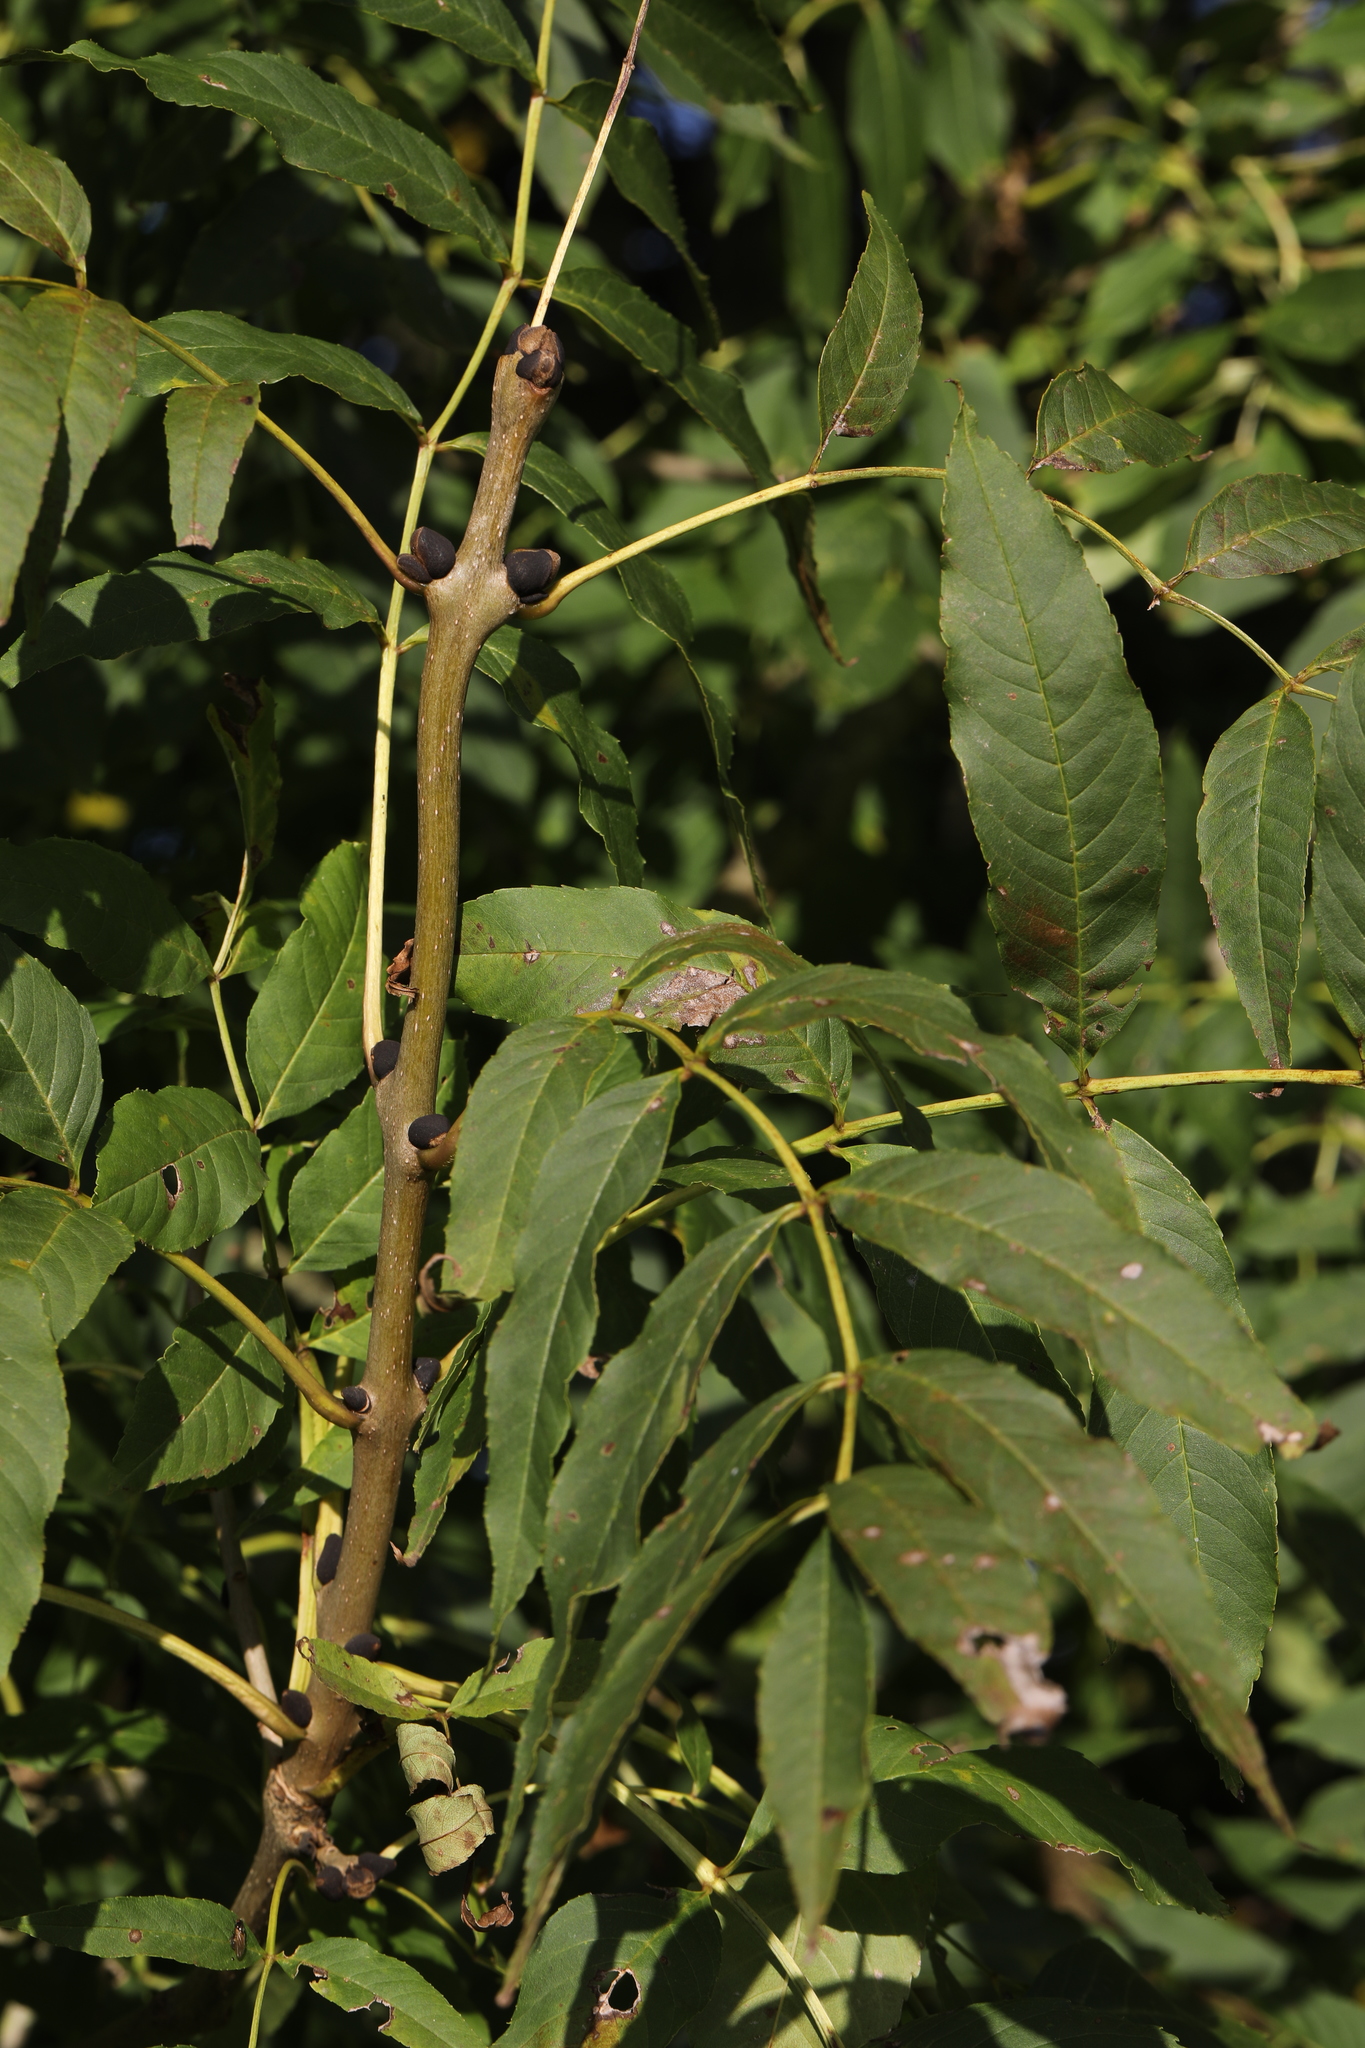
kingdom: Plantae
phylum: Tracheophyta
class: Magnoliopsida
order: Lamiales
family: Oleaceae
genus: Fraxinus
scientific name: Fraxinus excelsior
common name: European ash
